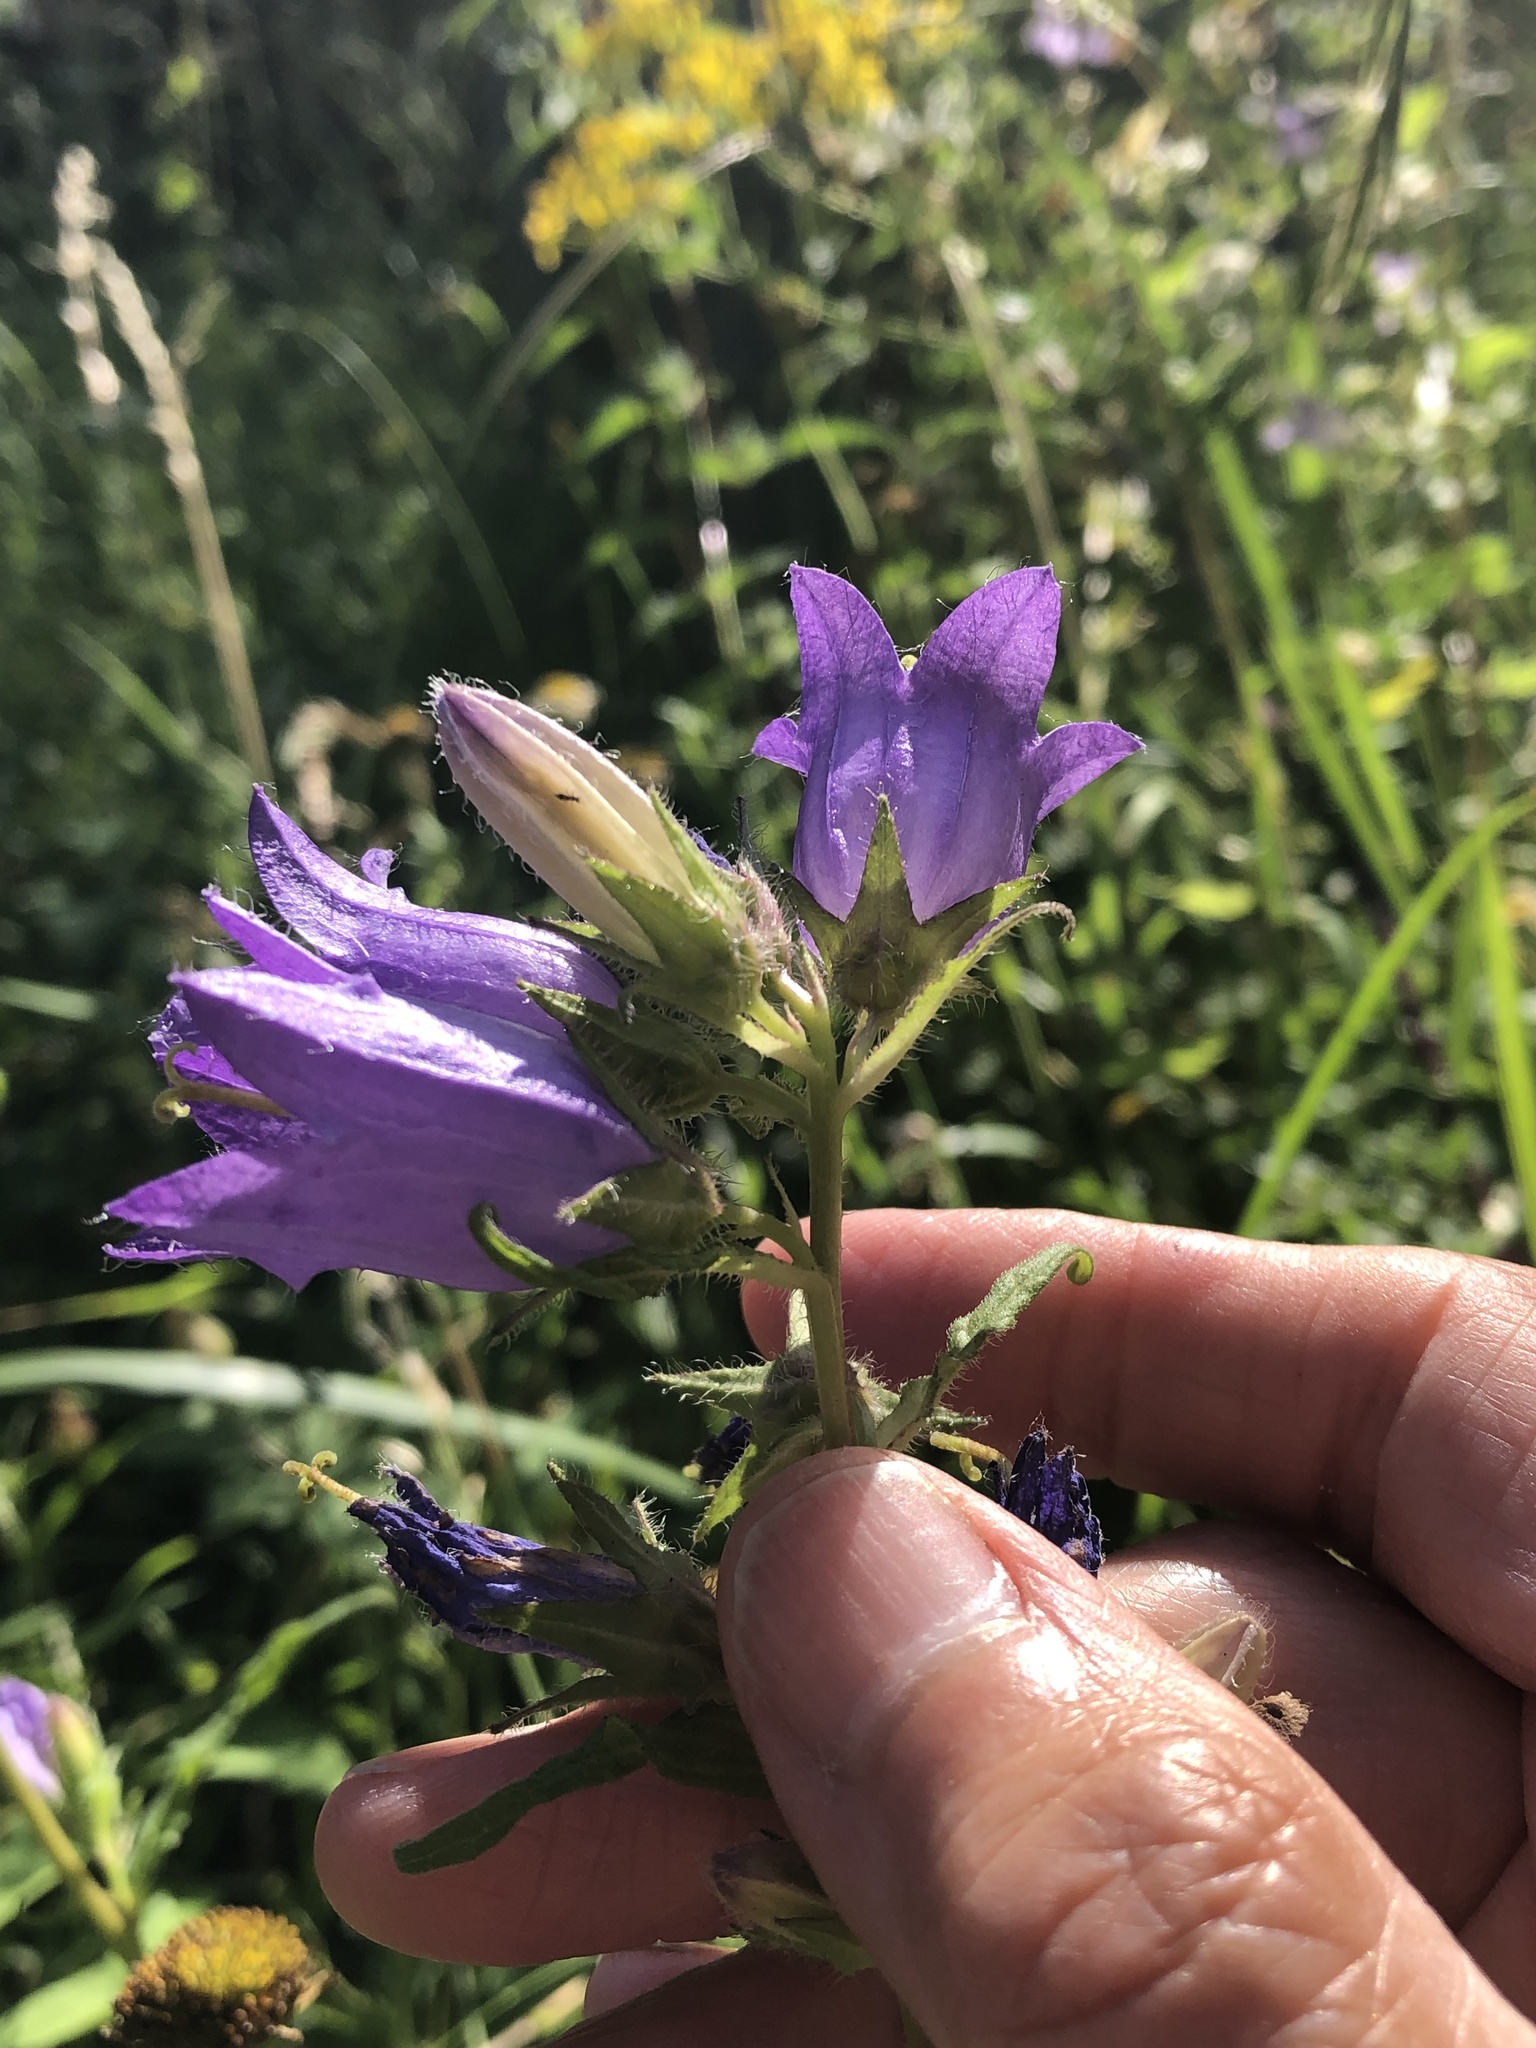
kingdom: Plantae
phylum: Tracheophyta
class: Magnoliopsida
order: Asterales
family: Campanulaceae
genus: Campanula
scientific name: Campanula trachelium
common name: Nettle-leaved bellflower
